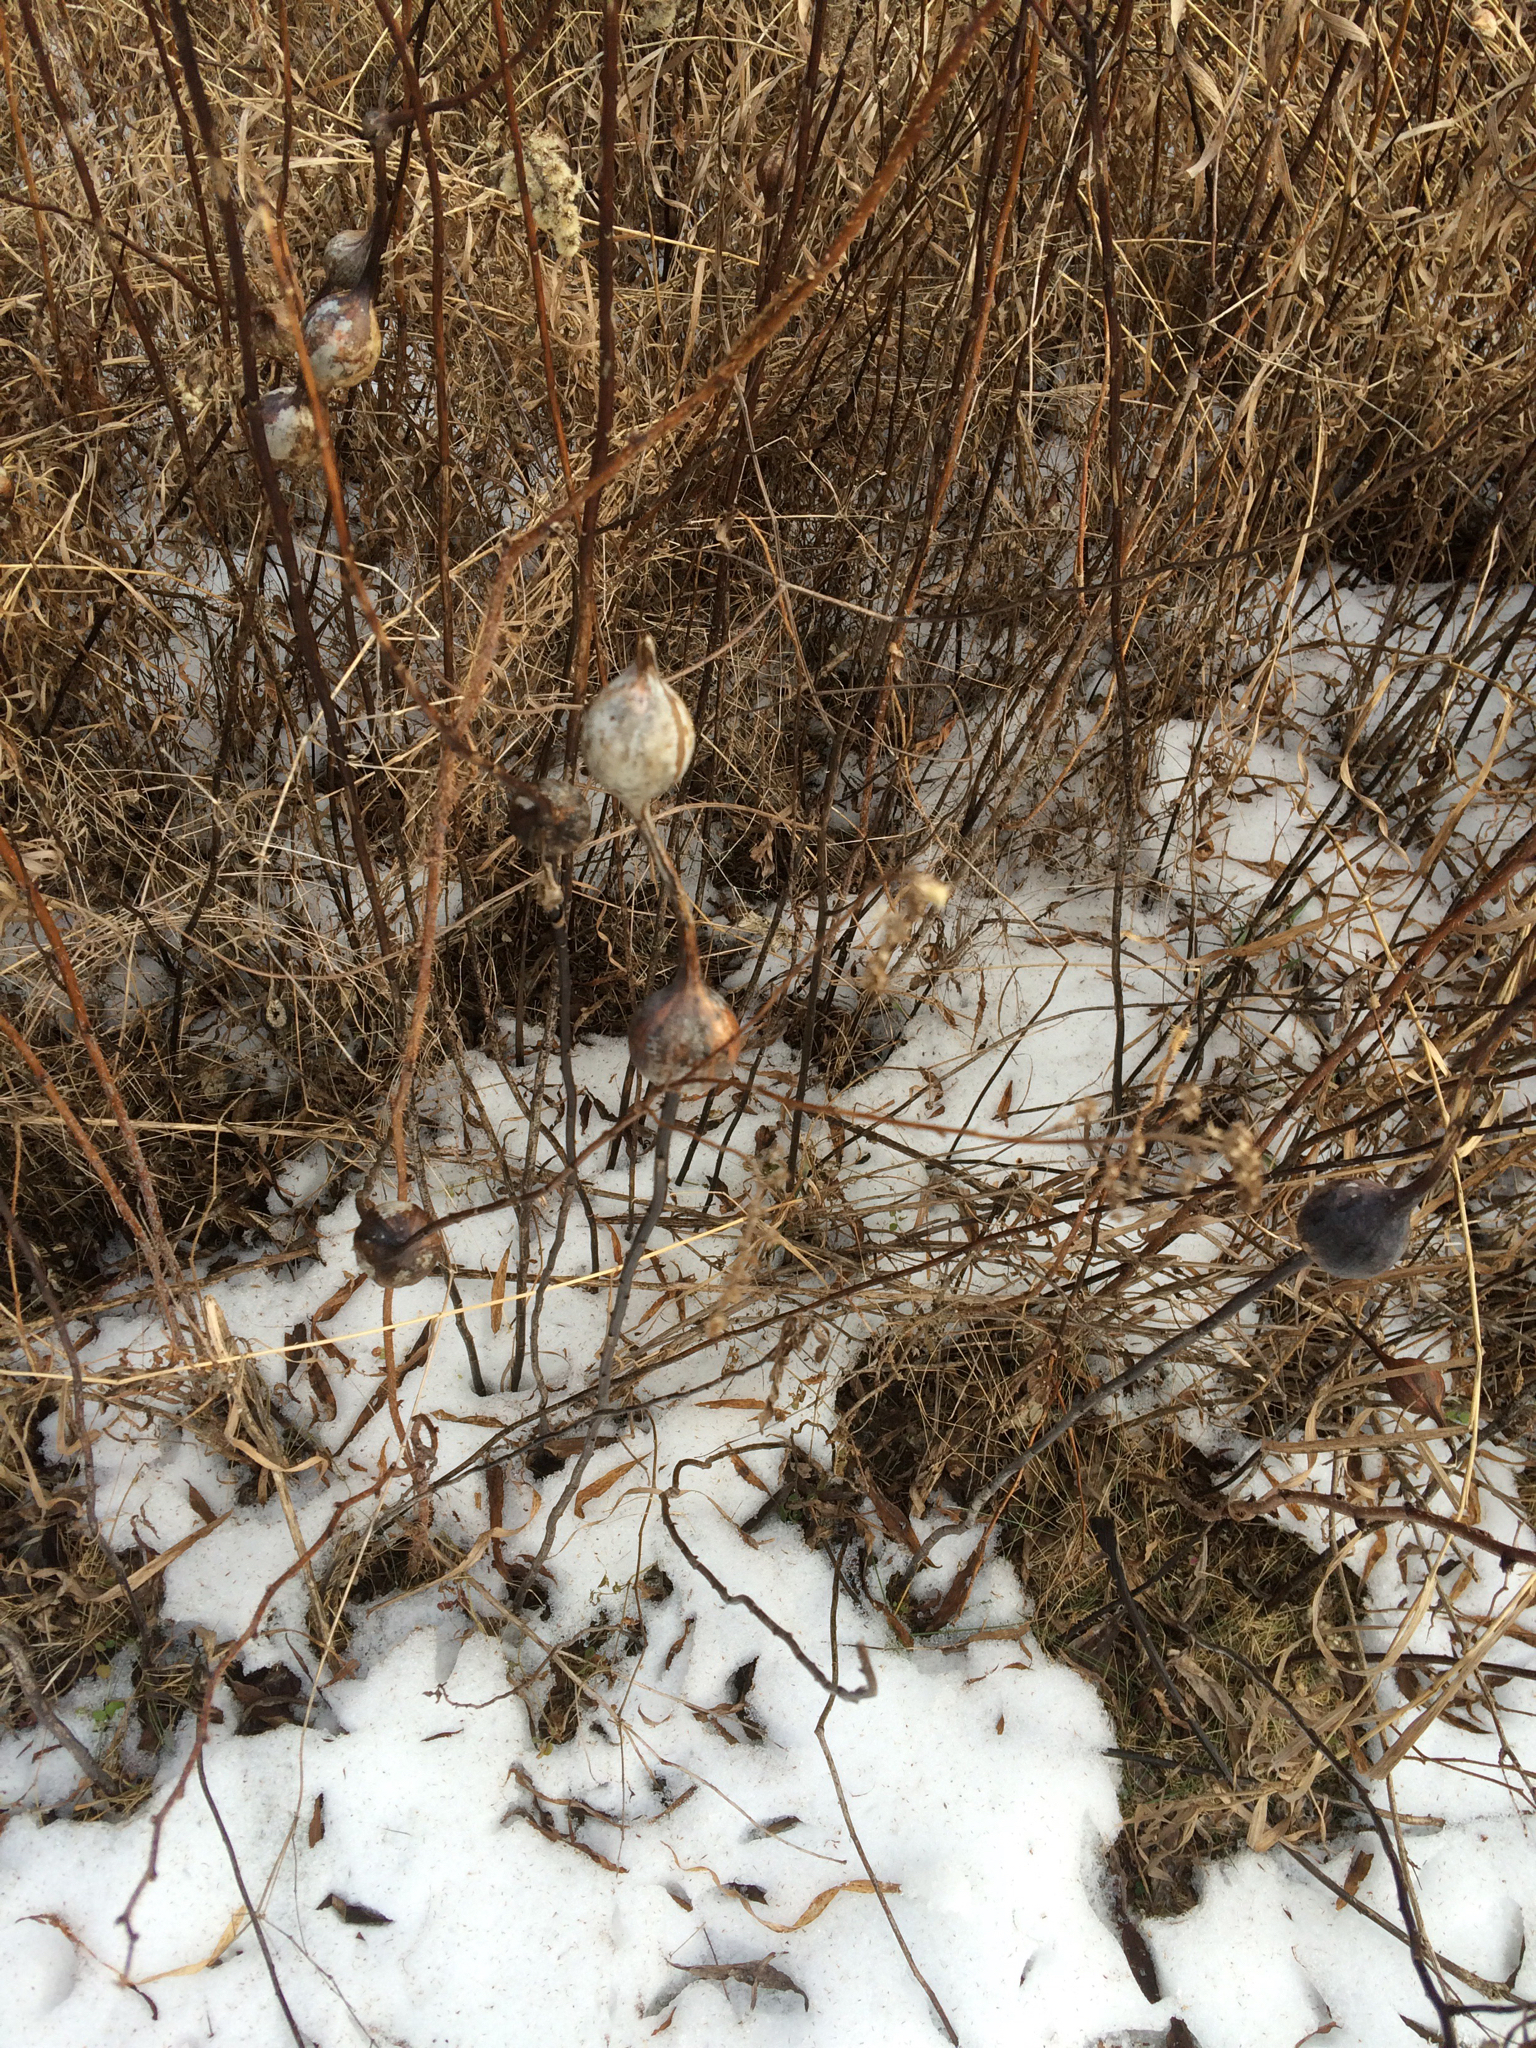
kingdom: Animalia
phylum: Arthropoda
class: Insecta
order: Diptera
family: Tephritidae
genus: Eurosta
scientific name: Eurosta solidaginis
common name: Goldenrod gall fly
